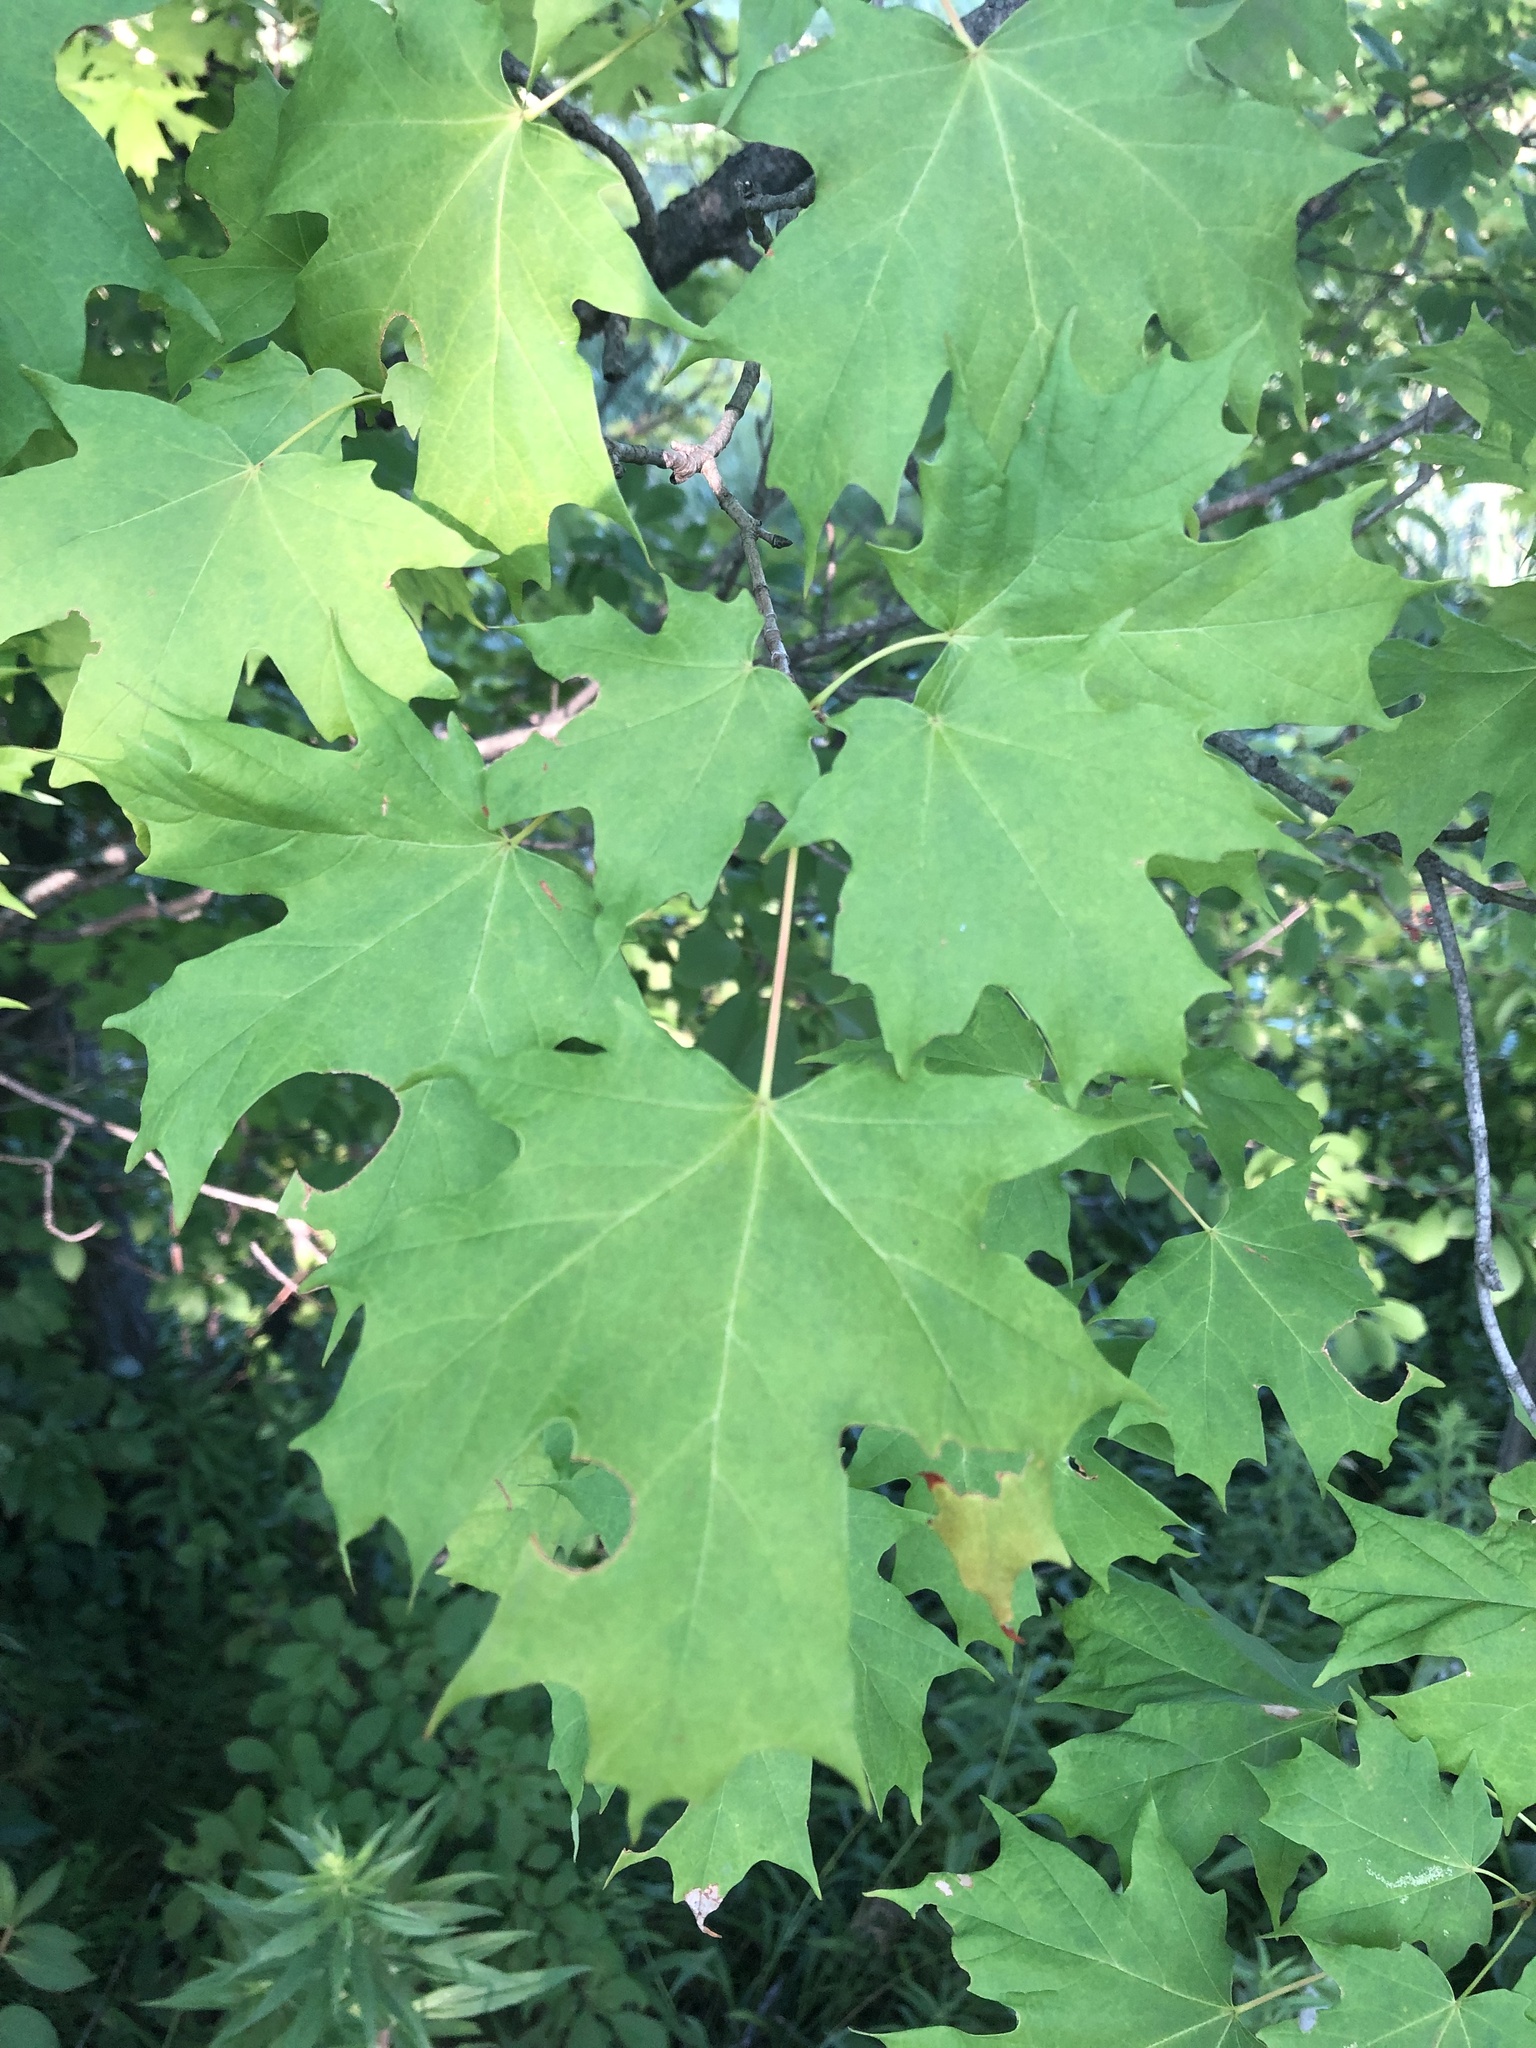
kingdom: Plantae
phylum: Tracheophyta
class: Magnoliopsida
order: Sapindales
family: Sapindaceae
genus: Acer
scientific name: Acer saccharum
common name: Sugar maple
